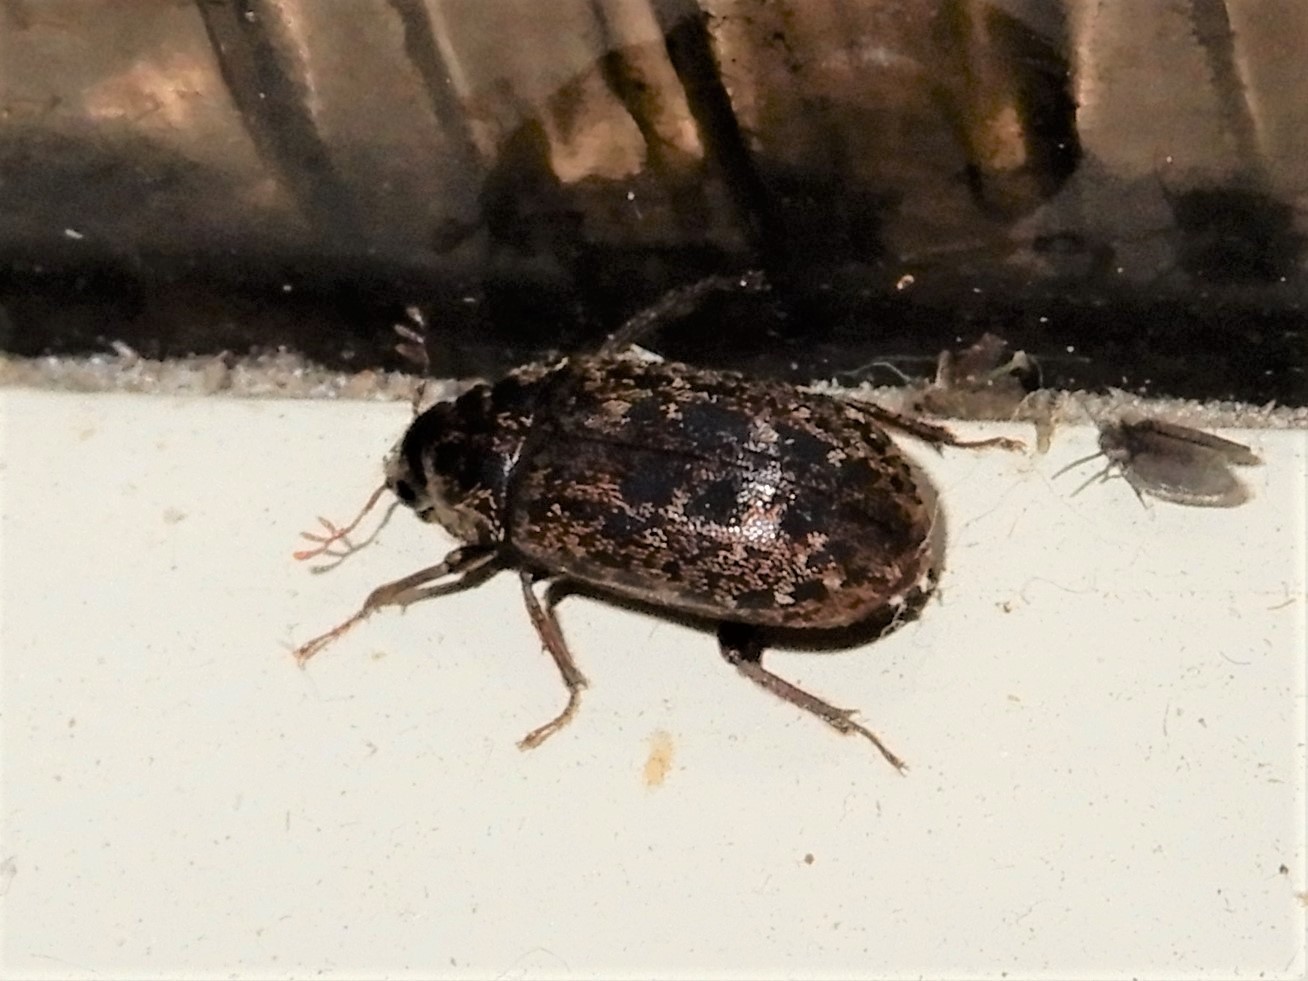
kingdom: Animalia
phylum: Arthropoda
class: Insecta
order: Coleoptera
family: Lucanidae
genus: Mitophyllus
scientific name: Mitophyllus irroratus
